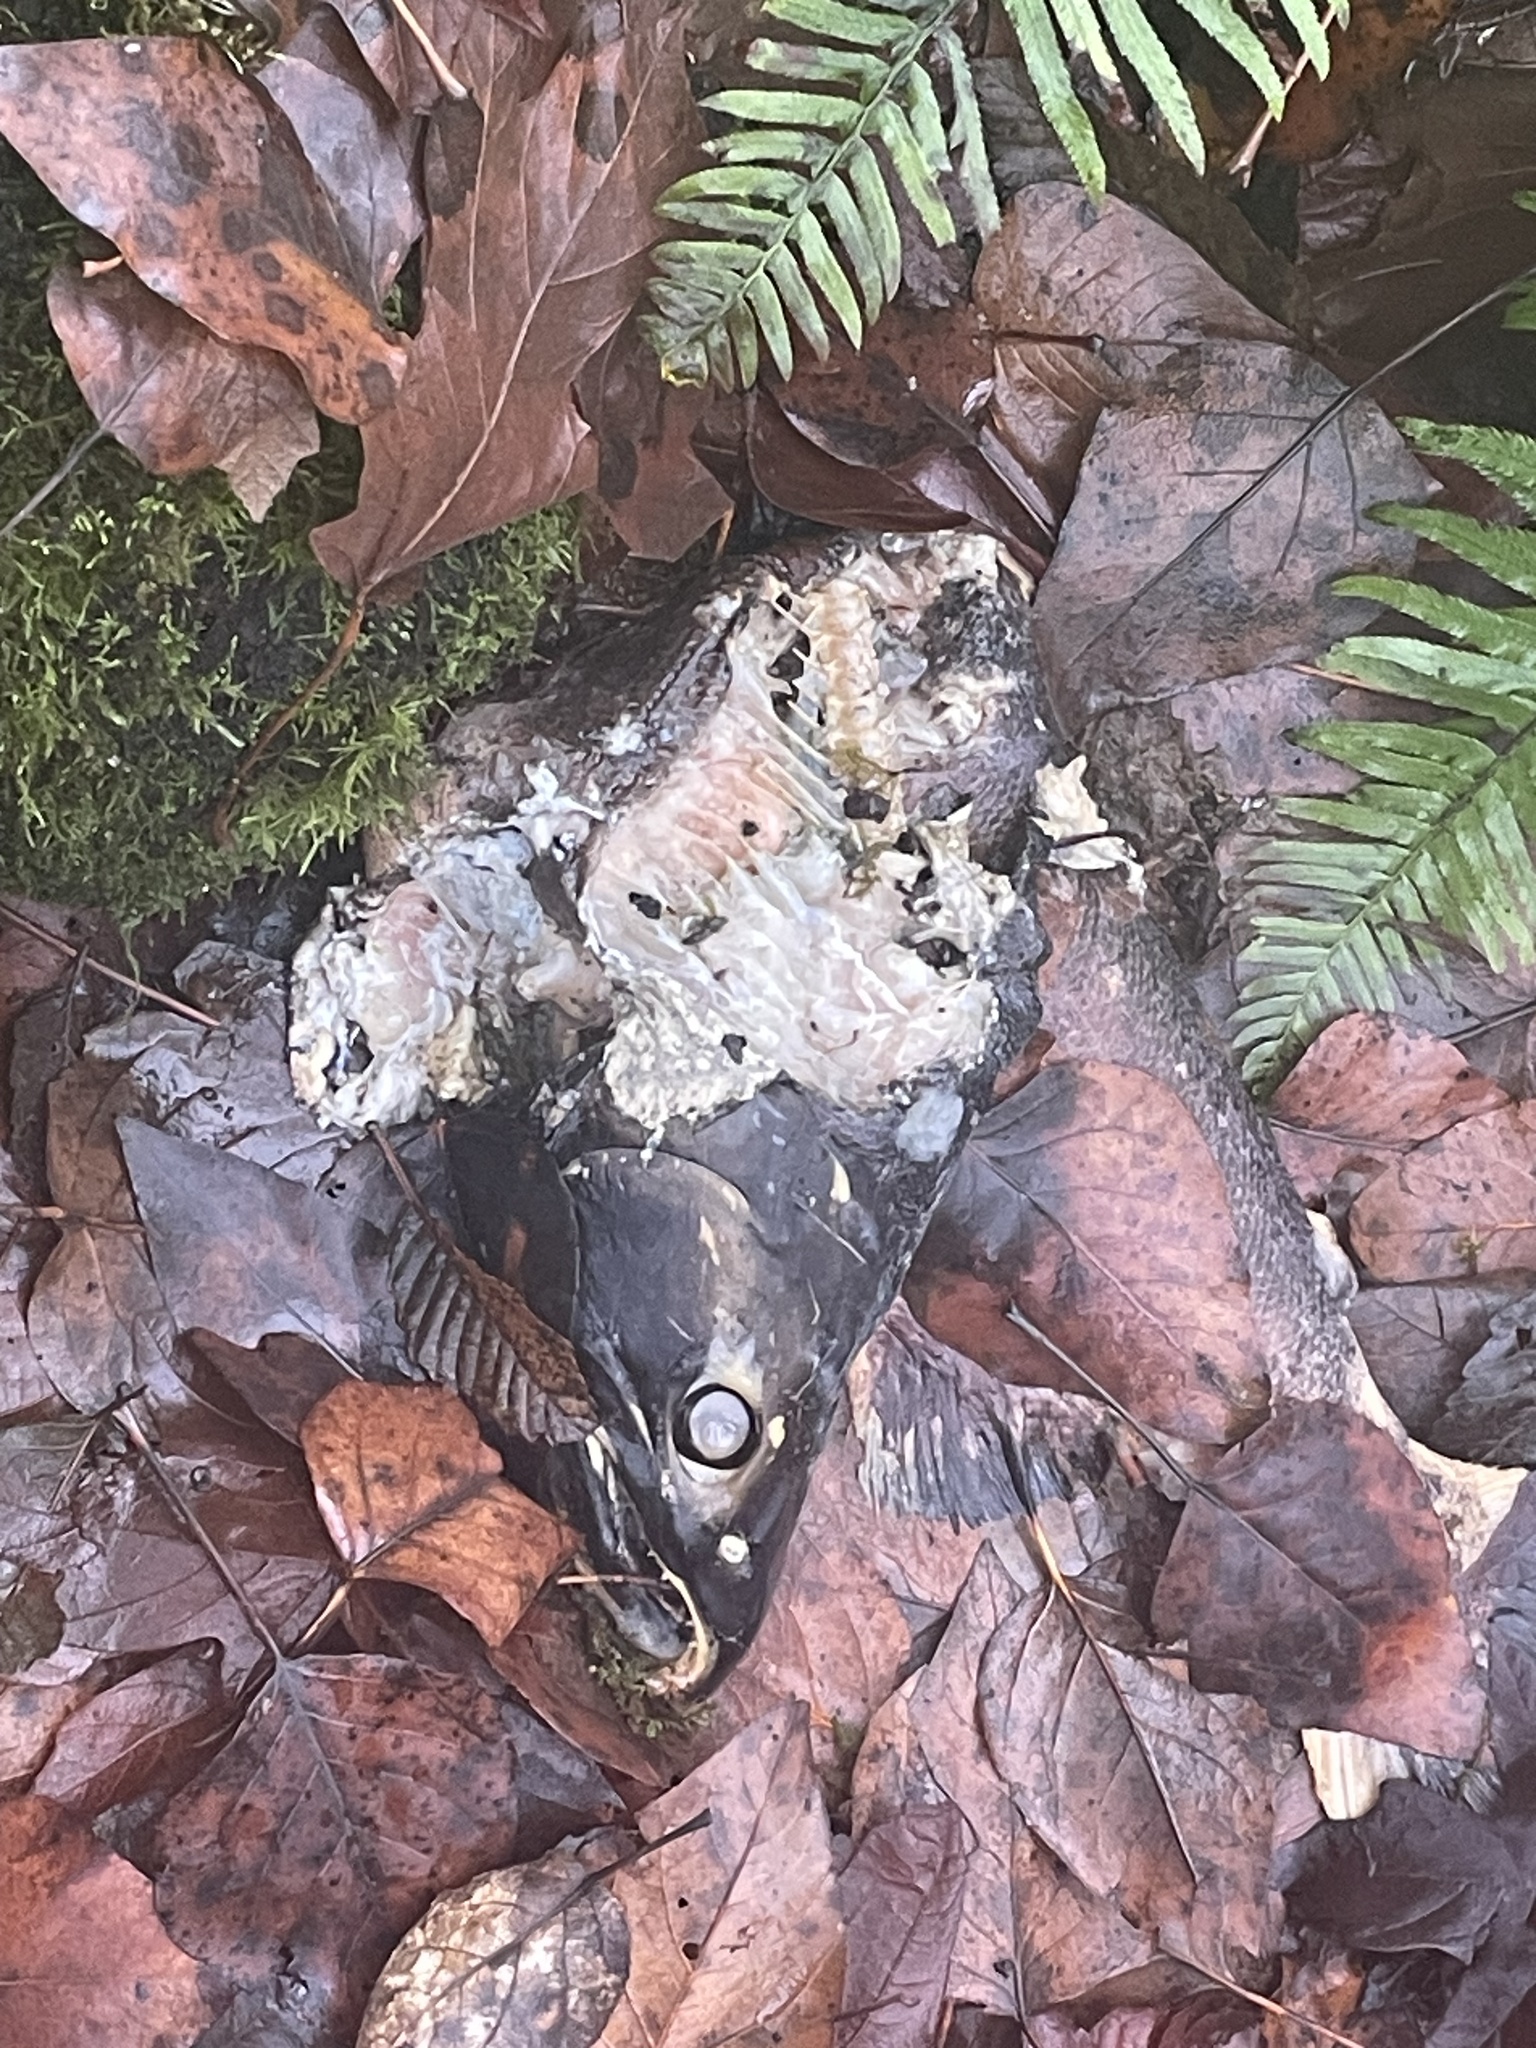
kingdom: Animalia
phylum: Chordata
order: Salmoniformes
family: Salmonidae
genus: Oncorhynchus
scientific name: Oncorhynchus kisutch
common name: Coho salmon
